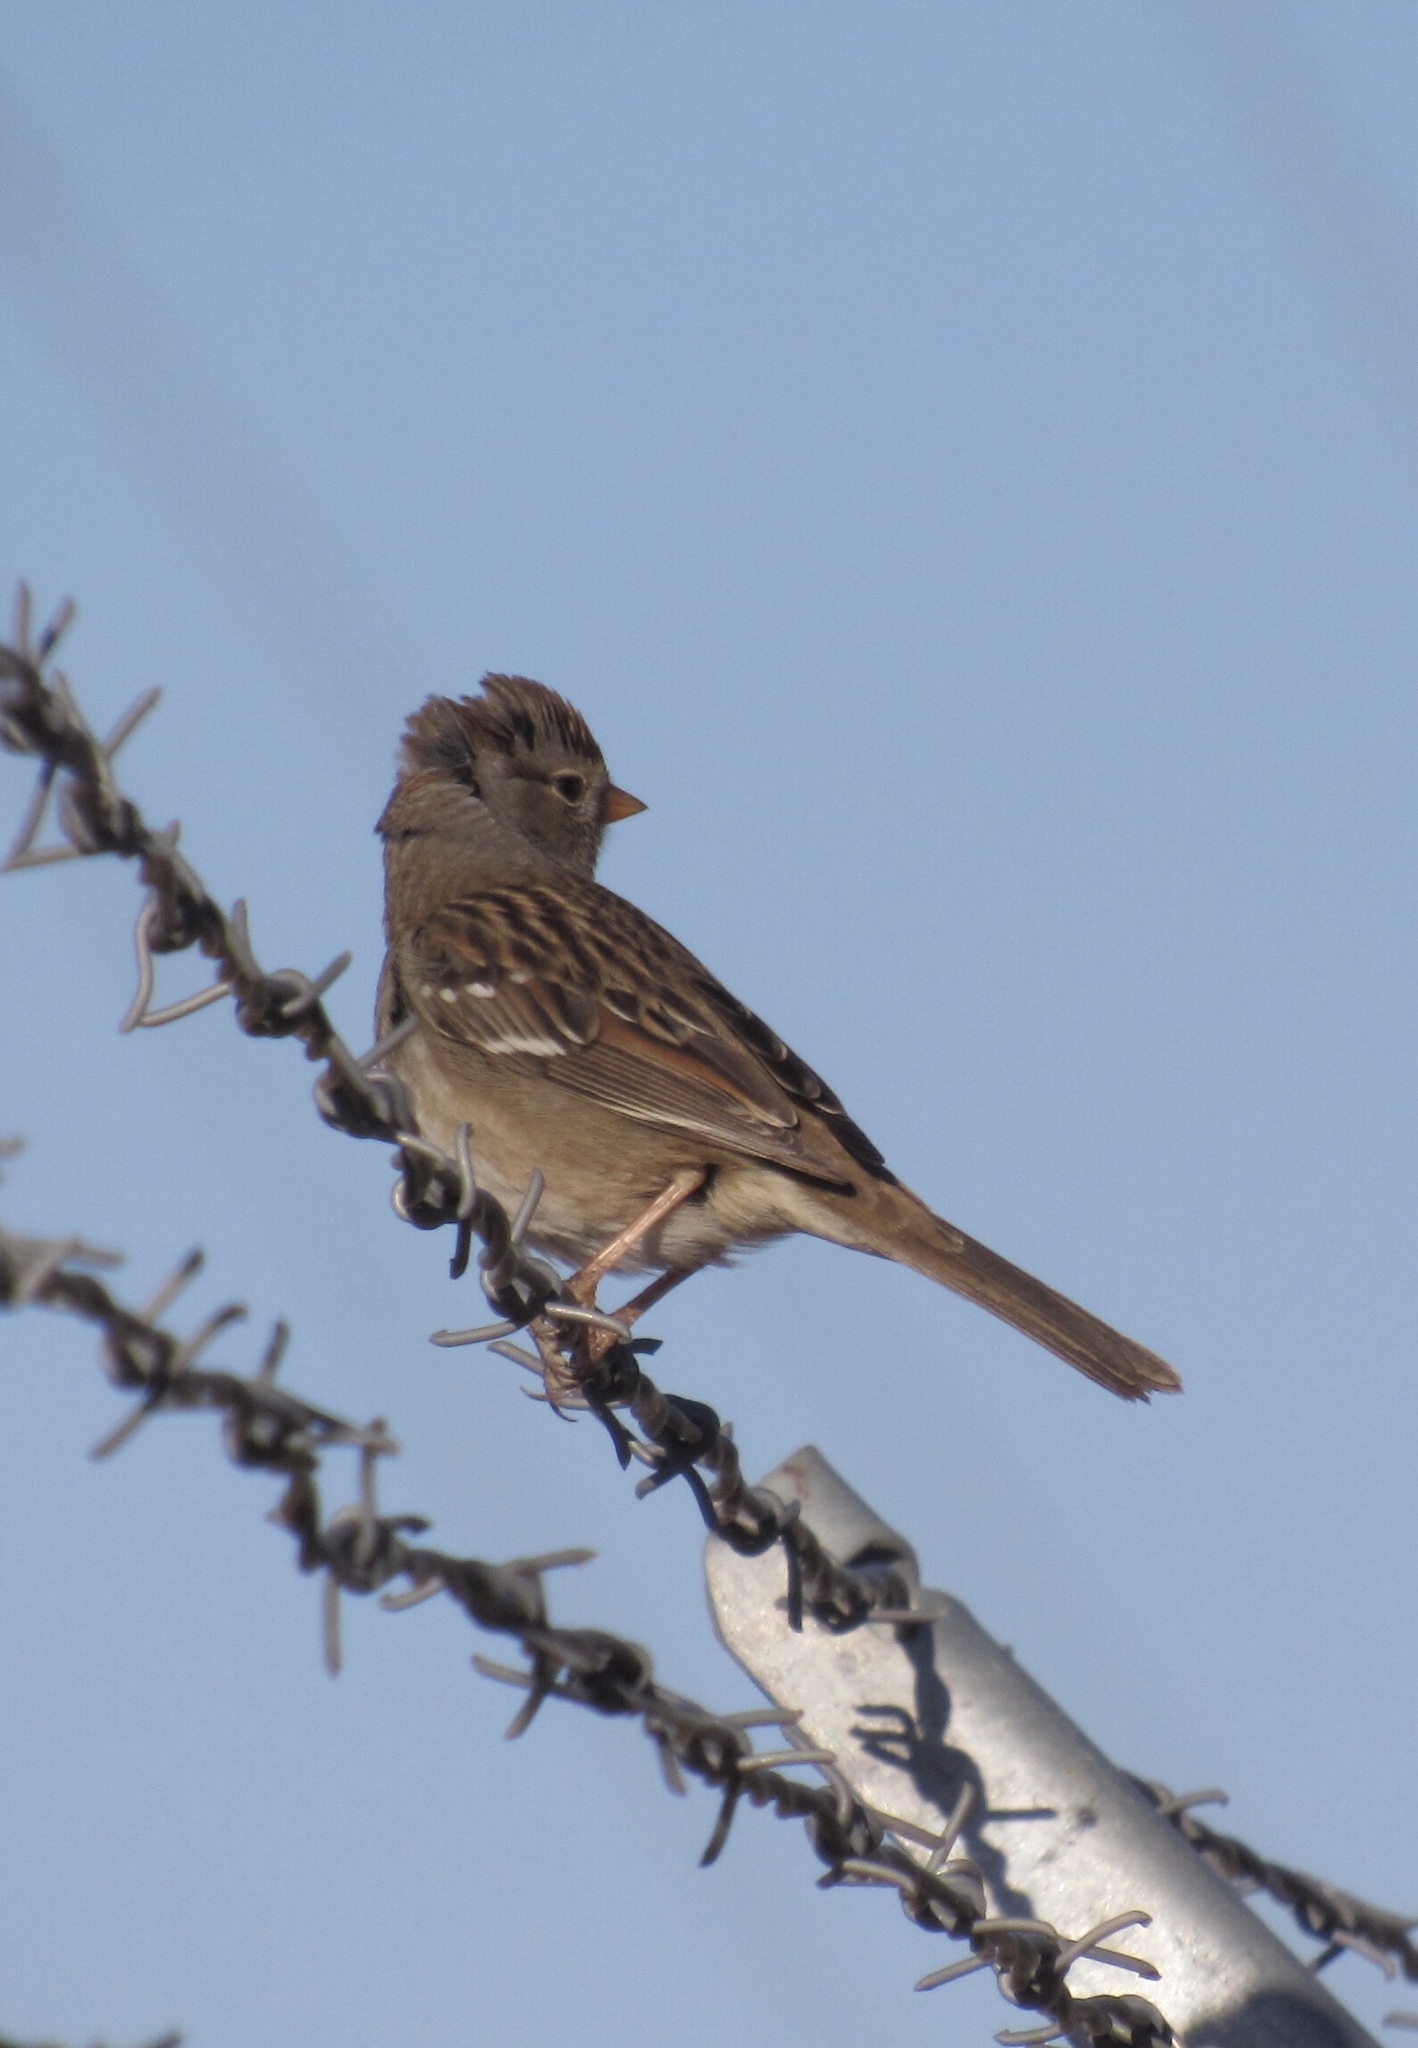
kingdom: Animalia
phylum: Chordata
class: Aves
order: Passeriformes
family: Passerellidae
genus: Zonotrichia
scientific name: Zonotrichia leucophrys
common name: White-crowned sparrow
